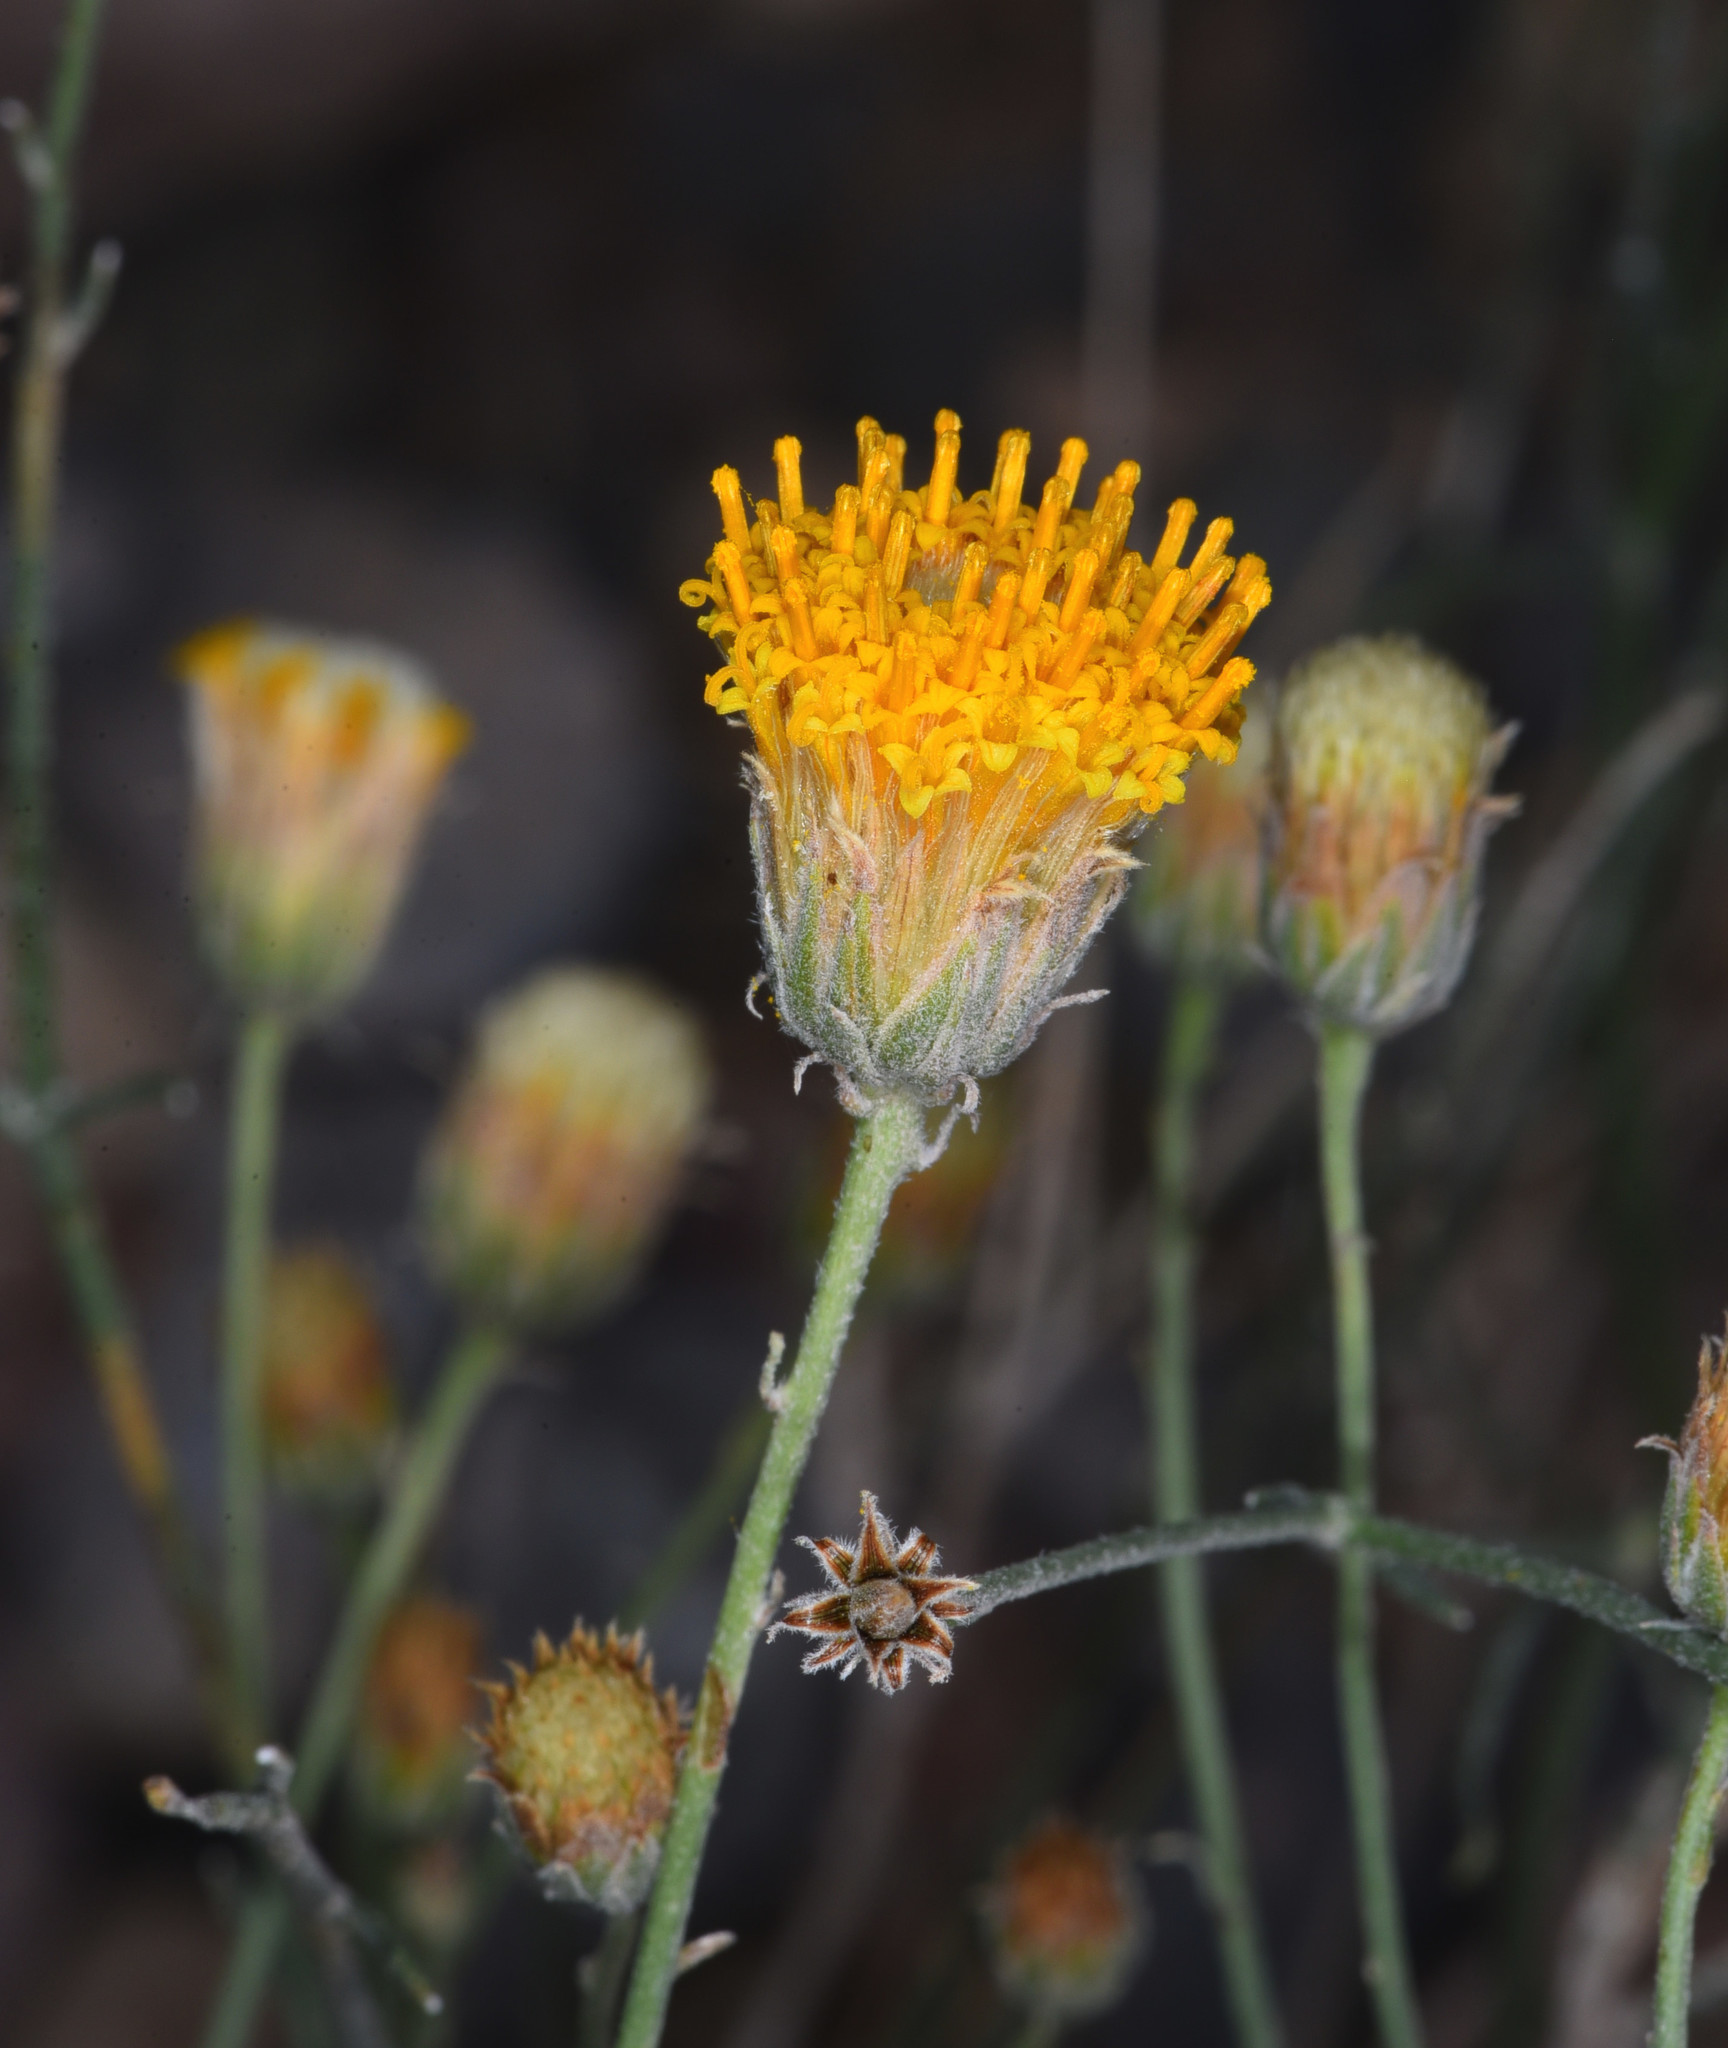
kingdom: Plantae
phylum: Tracheophyta
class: Magnoliopsida
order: Asterales
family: Asteraceae
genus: Bebbia
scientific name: Bebbia juncea
